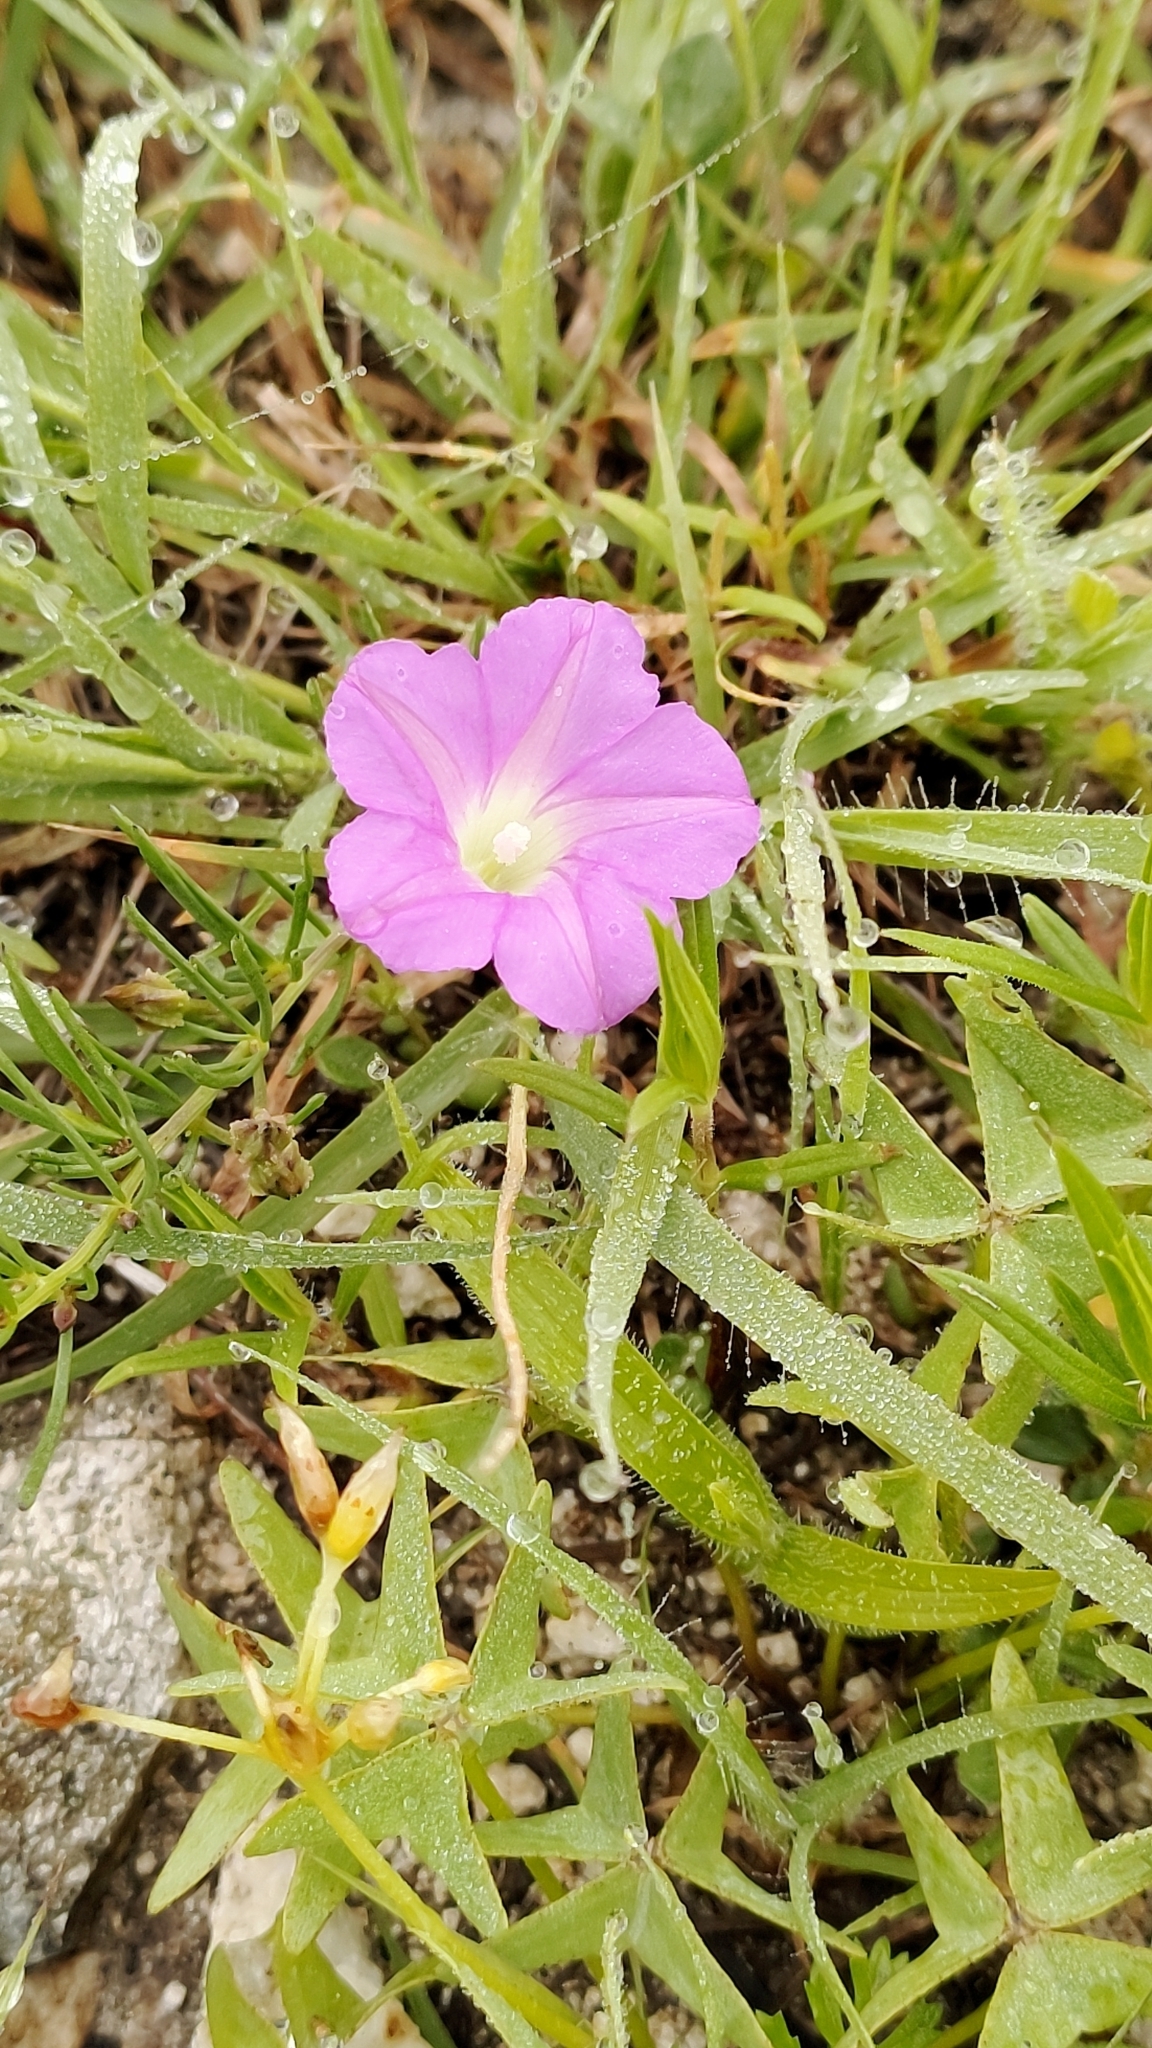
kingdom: Plantae
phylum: Tracheophyta
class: Magnoliopsida
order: Solanales
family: Convolvulaceae
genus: Ipomoea
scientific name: Ipomoea capillacea
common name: Purple morning-glory
